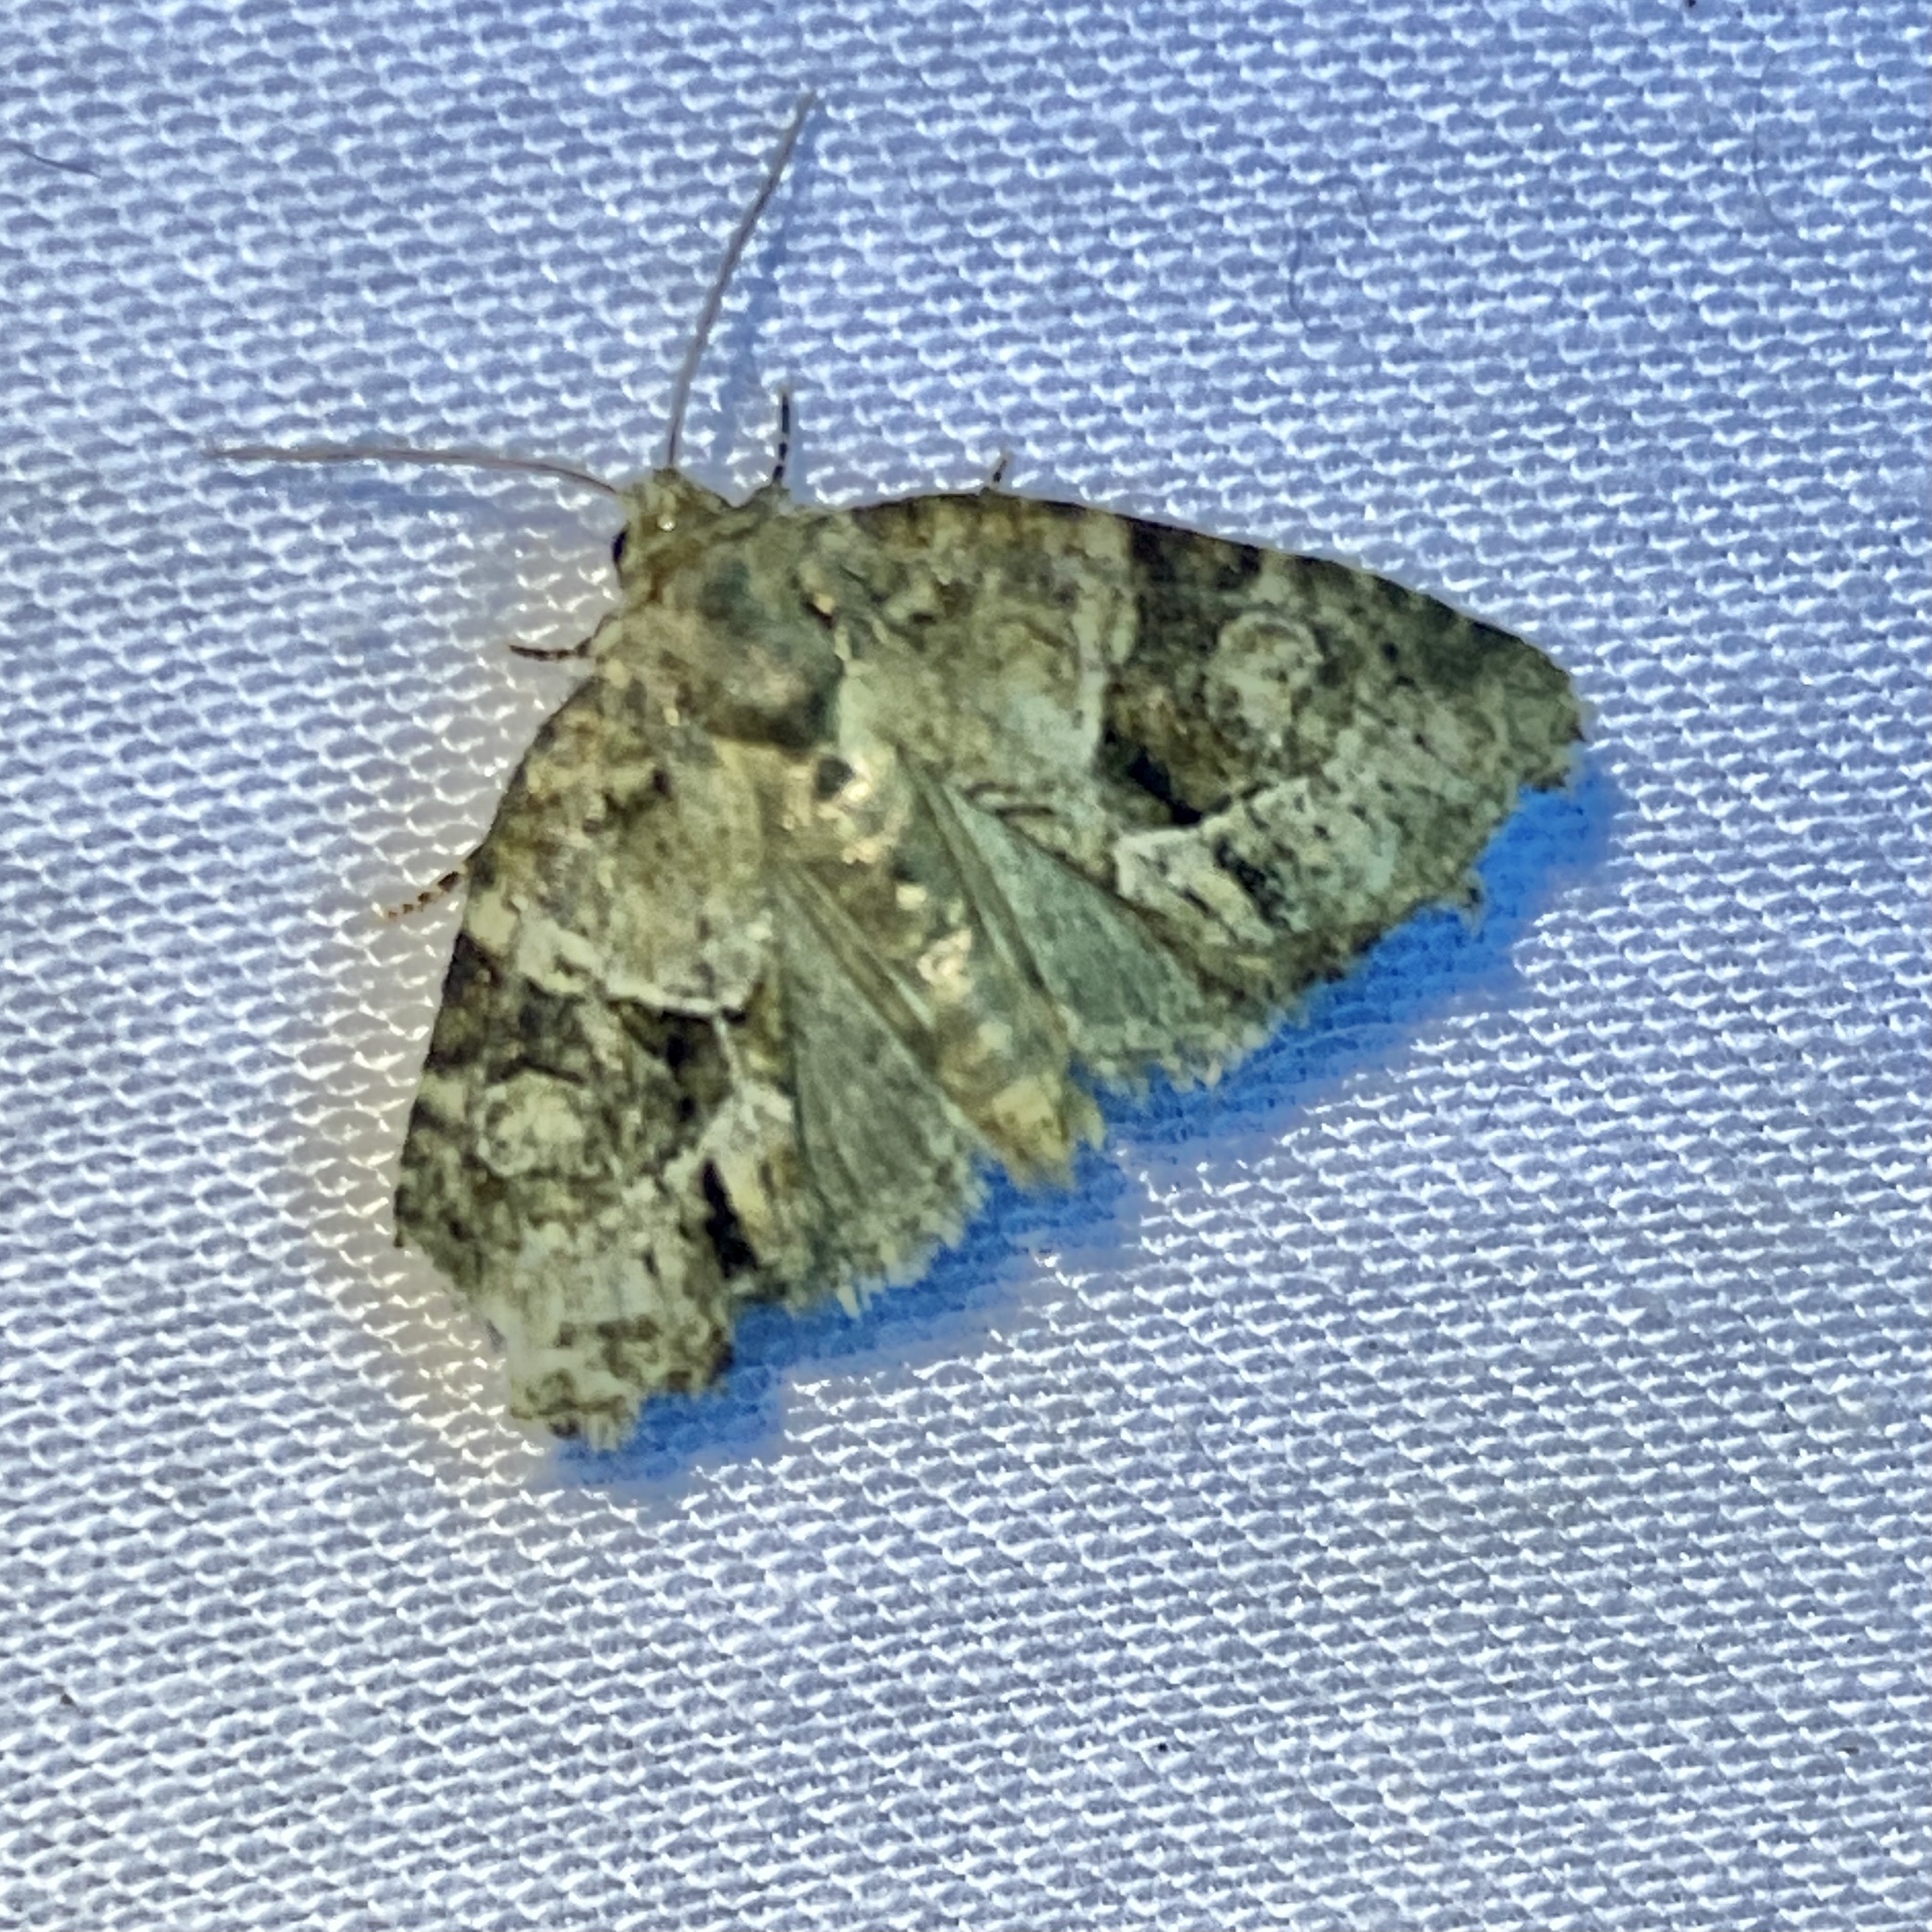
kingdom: Animalia
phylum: Arthropoda
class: Insecta
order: Lepidoptera
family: Noctuidae
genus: Neoligia
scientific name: Neoligia exhausta
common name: Exhausted brocade
